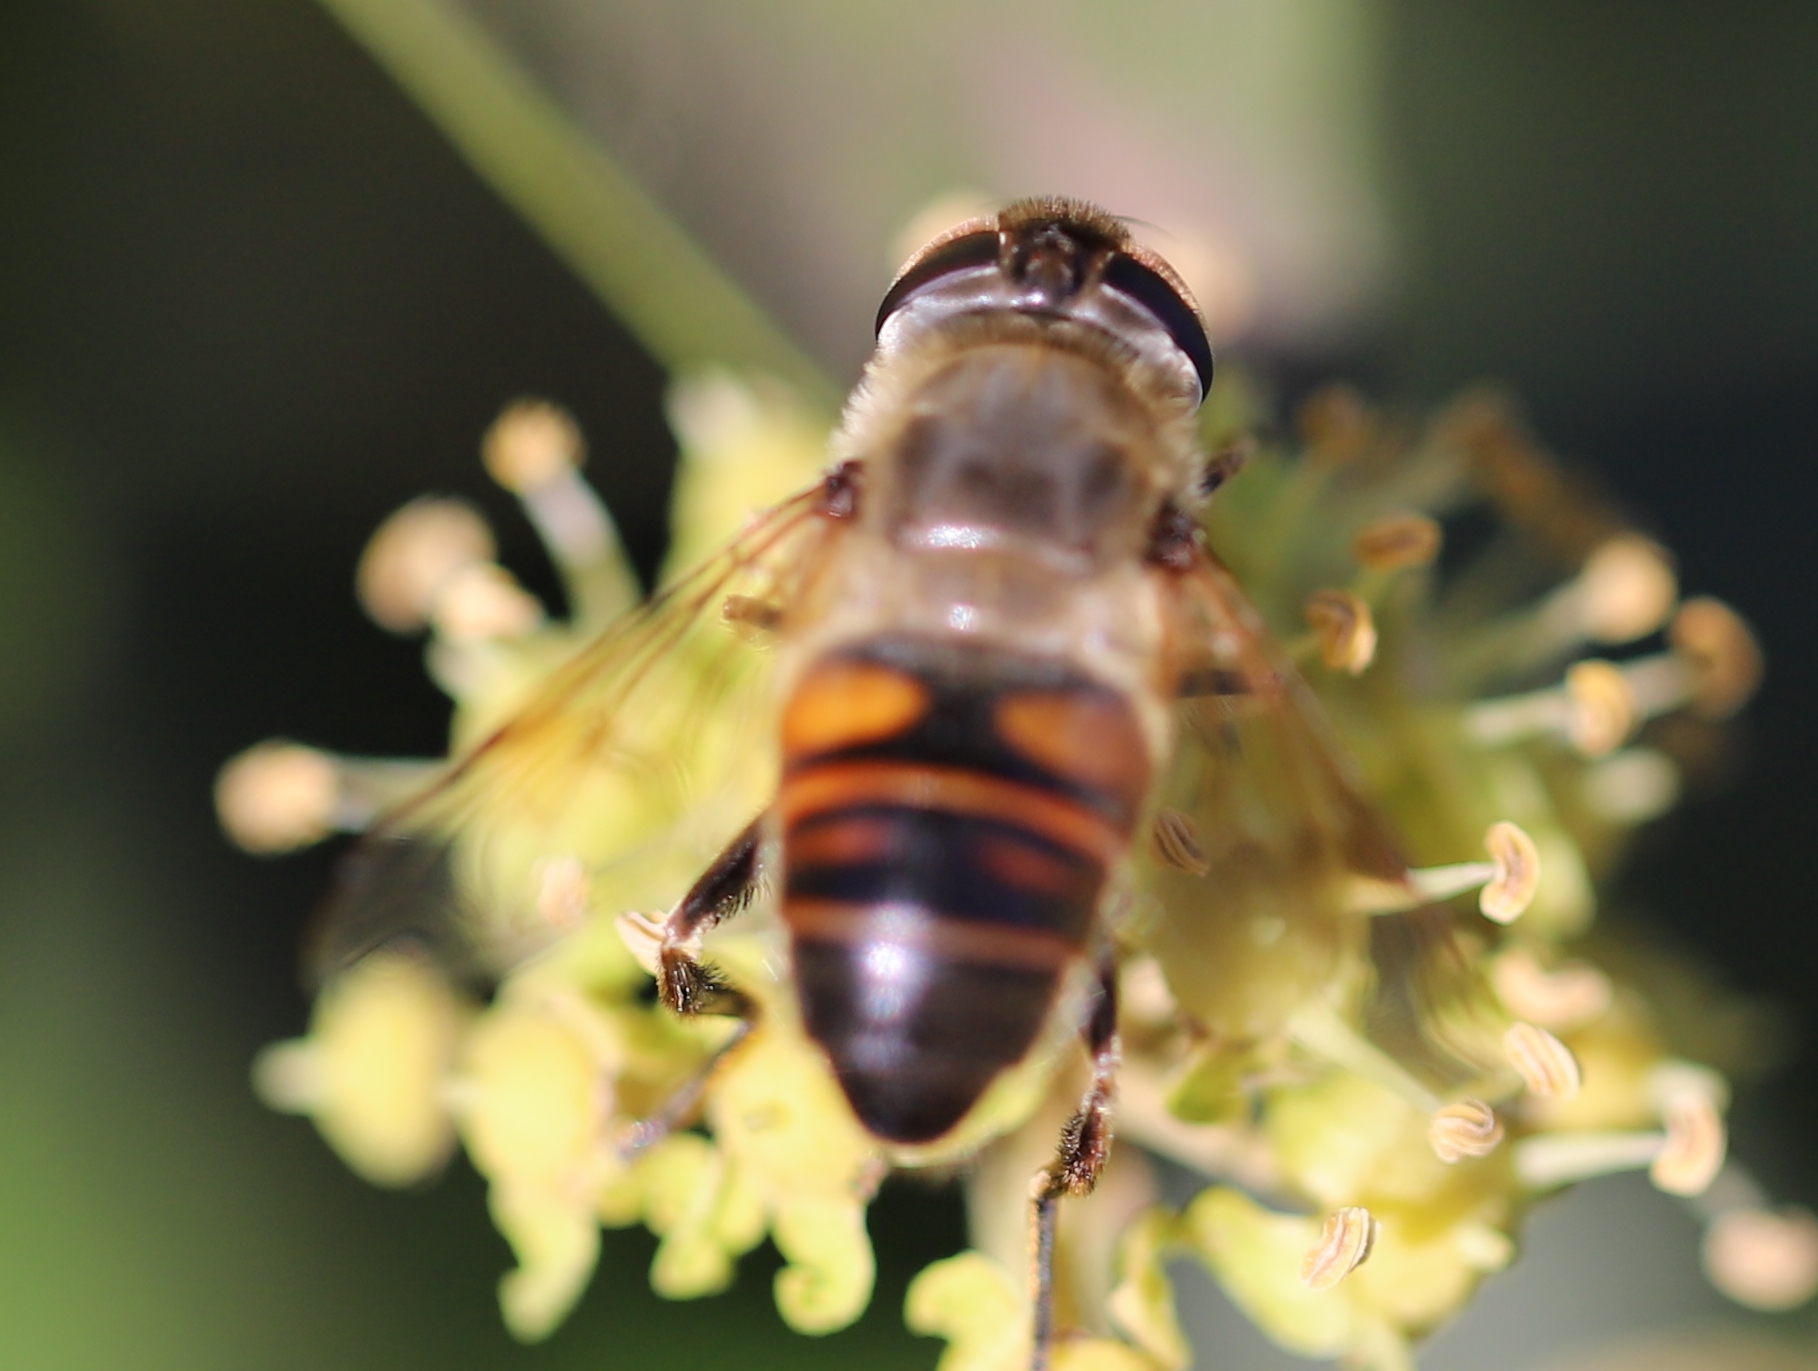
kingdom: Animalia
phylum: Arthropoda
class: Insecta
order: Diptera
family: Syrphidae
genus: Eristalis
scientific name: Eristalis tenax
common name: Drone fly
